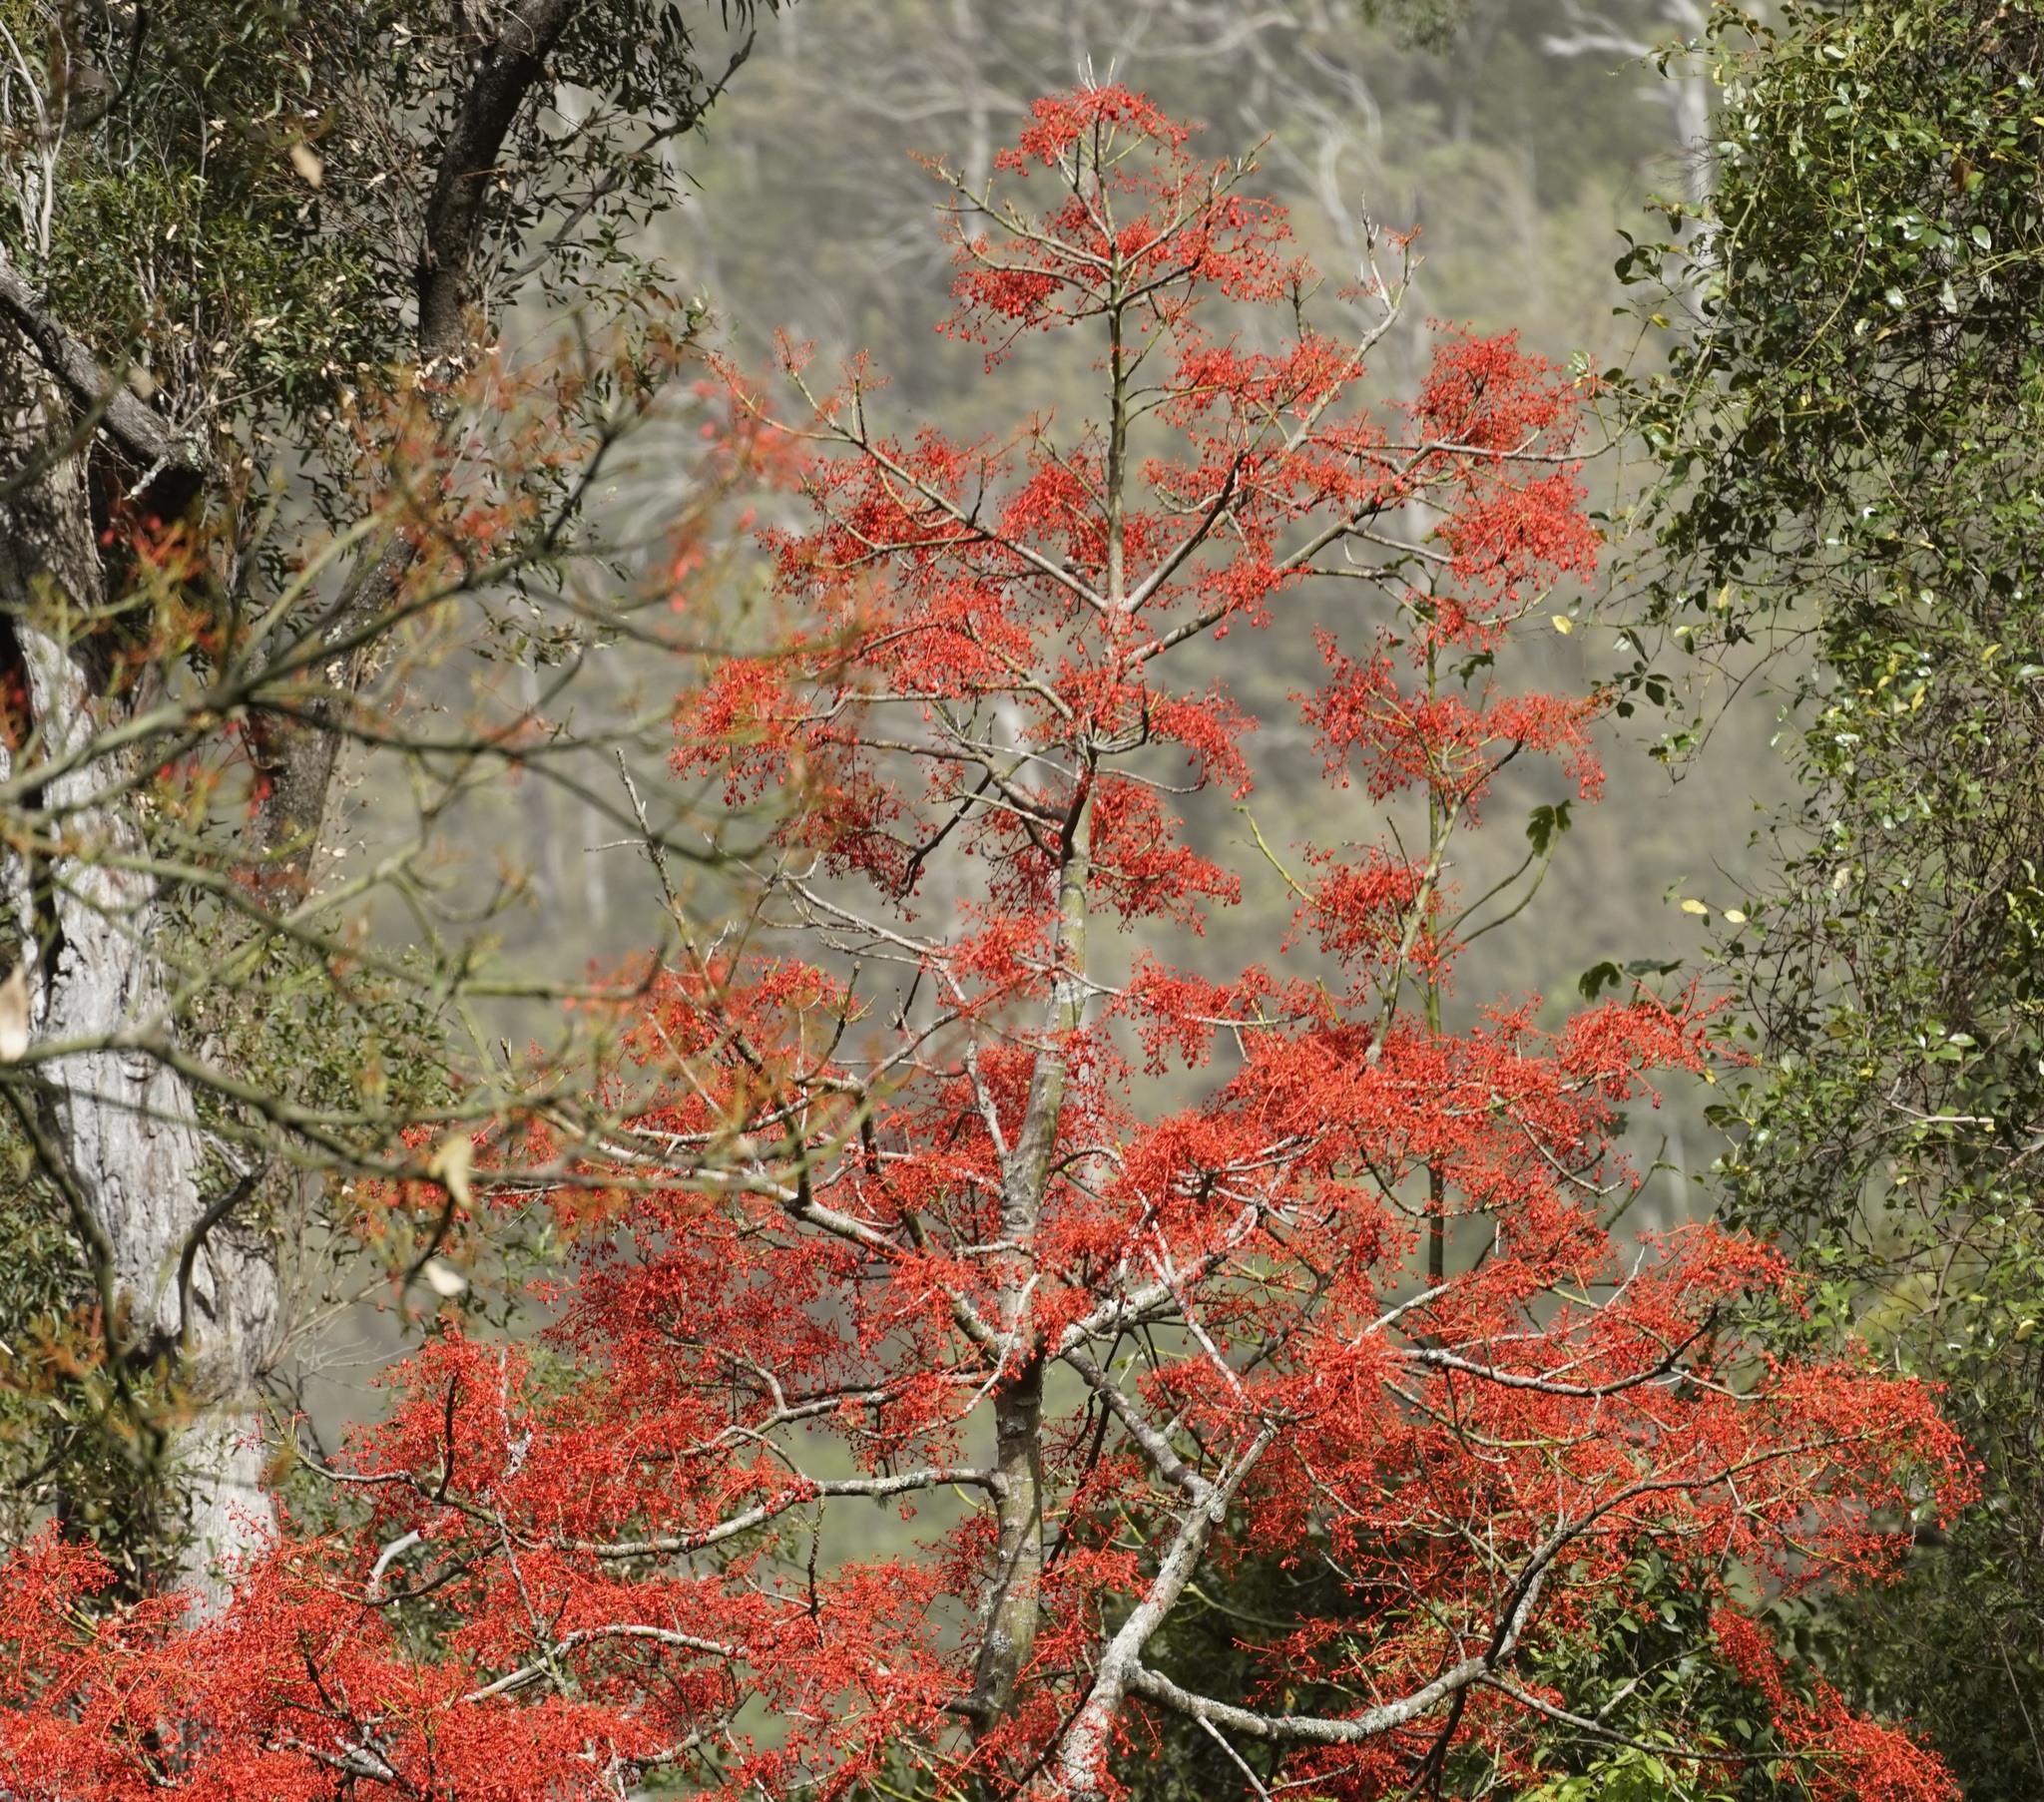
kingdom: Plantae
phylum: Tracheophyta
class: Magnoliopsida
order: Malvales
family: Malvaceae
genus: Brachychiton
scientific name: Brachychiton acerifolius
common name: Illawarra flame tree
